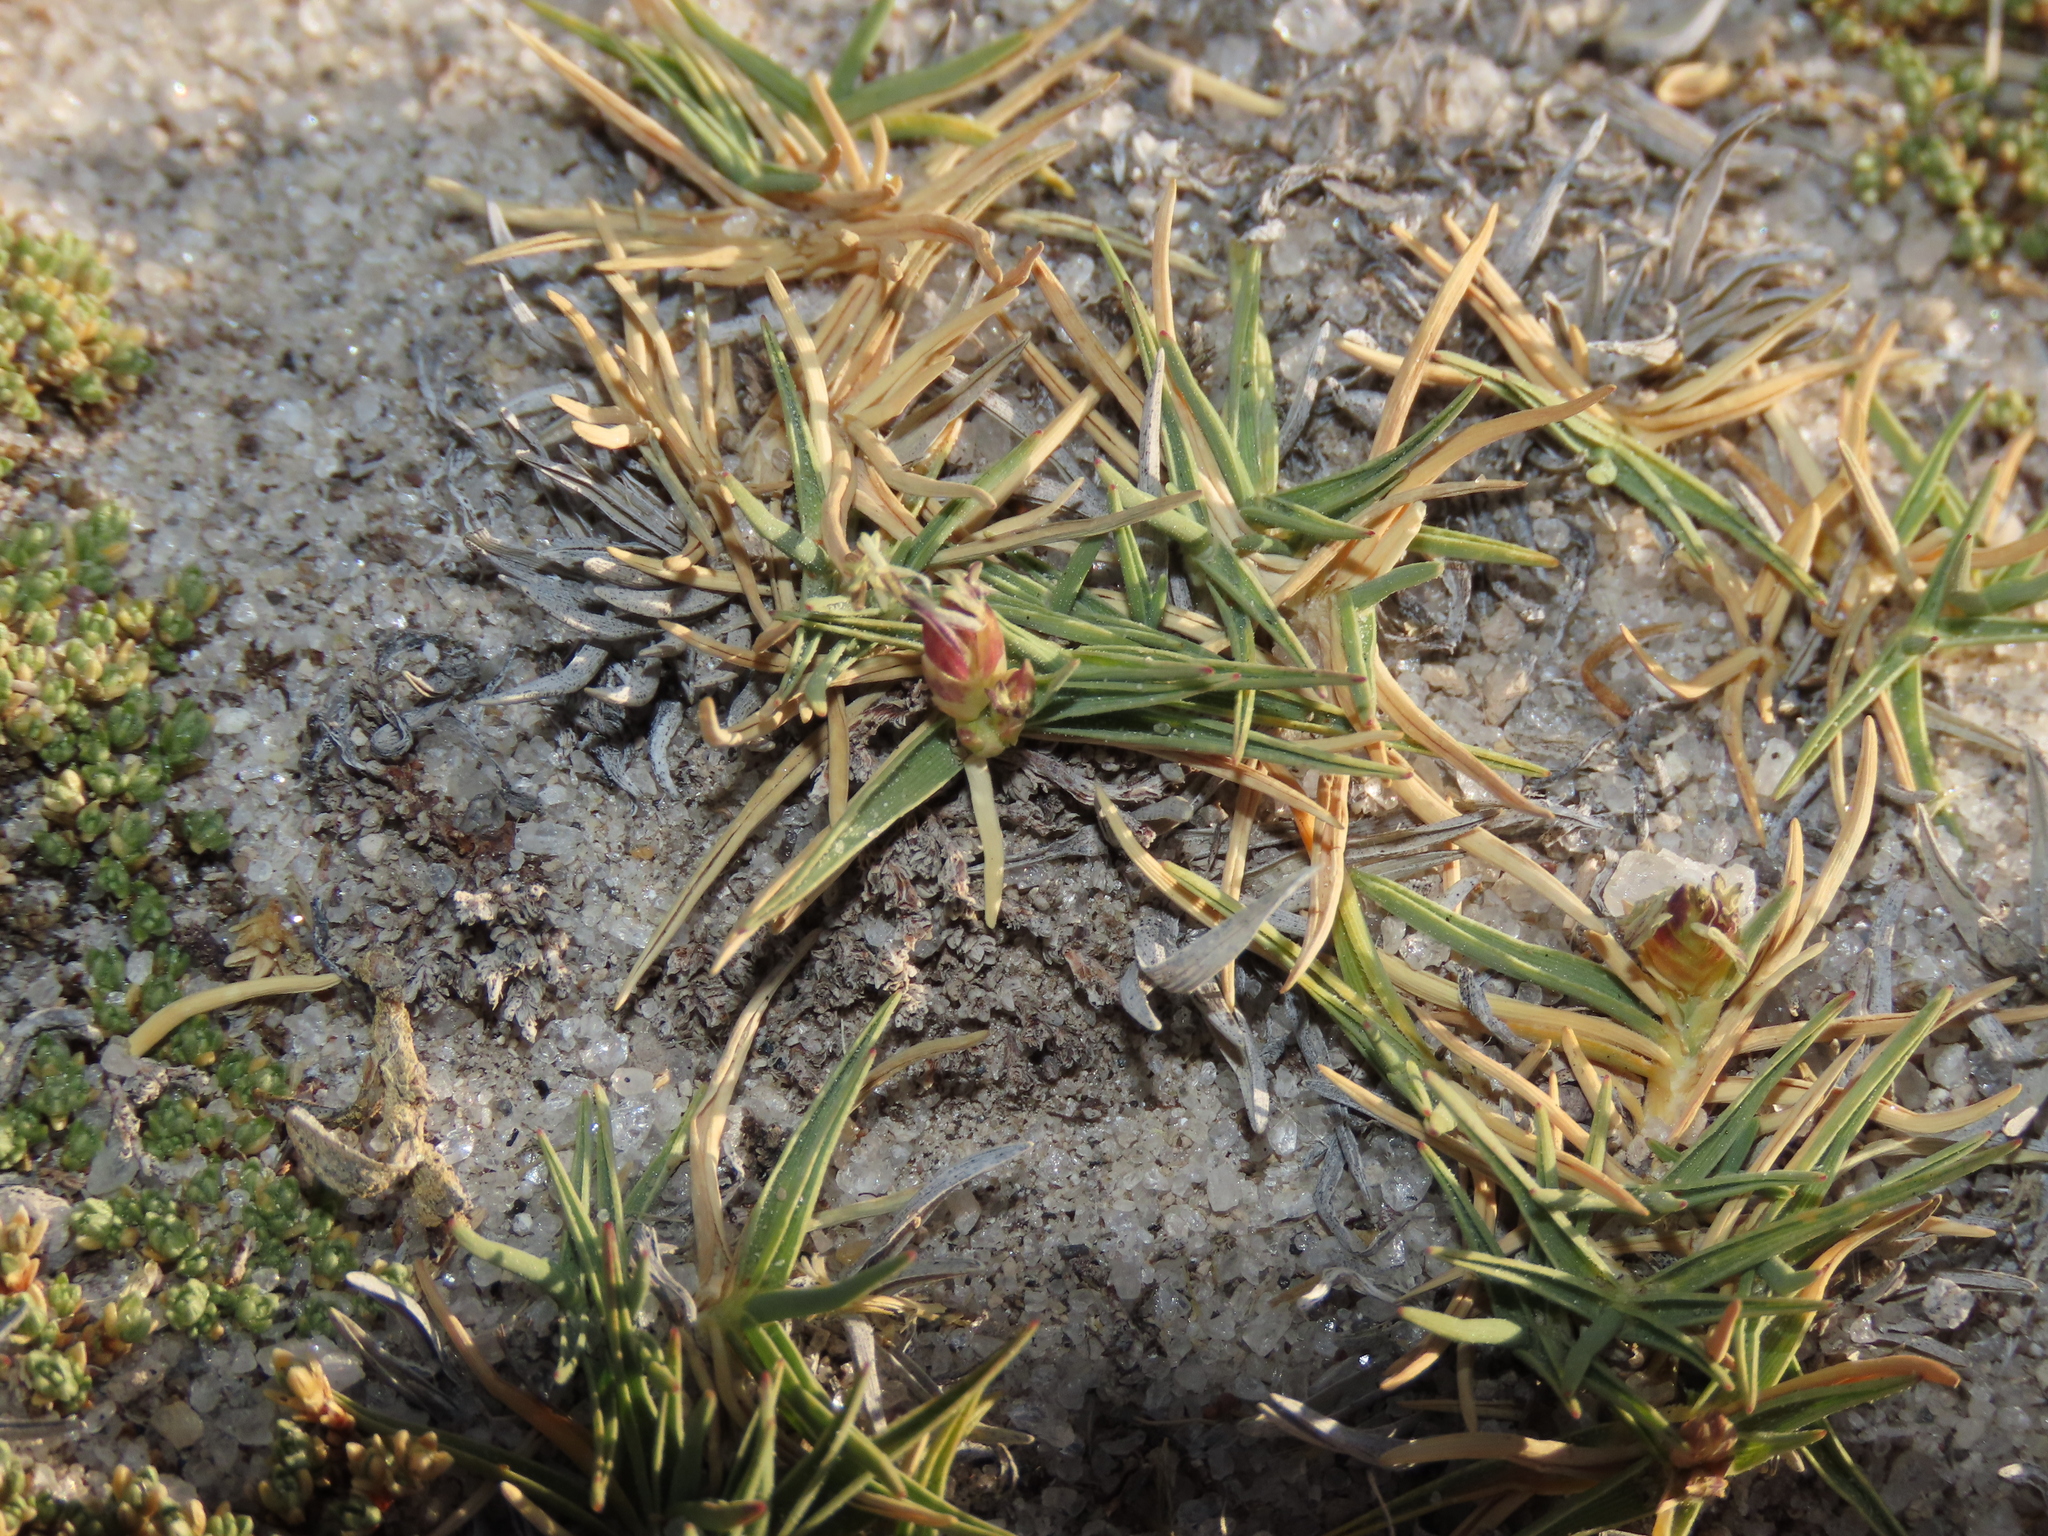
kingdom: Plantae
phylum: Tracheophyta
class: Liliopsida
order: Poales
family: Poaceae
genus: Distichlis
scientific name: Distichlis humilis
